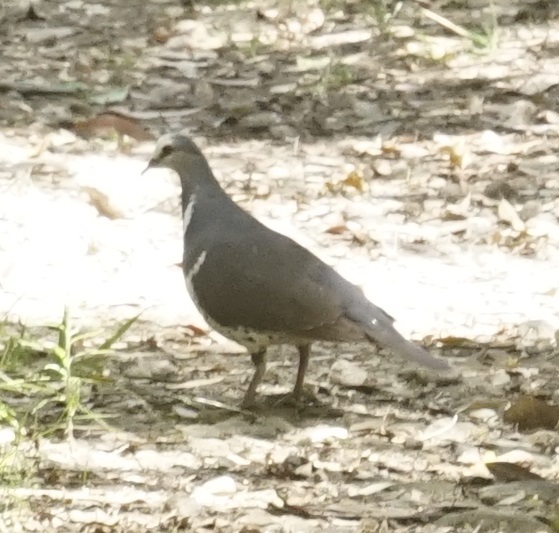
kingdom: Animalia
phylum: Chordata
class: Aves
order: Columbiformes
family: Columbidae
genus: Leucosarcia
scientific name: Leucosarcia melanoleuca
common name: Wonga pigeon
